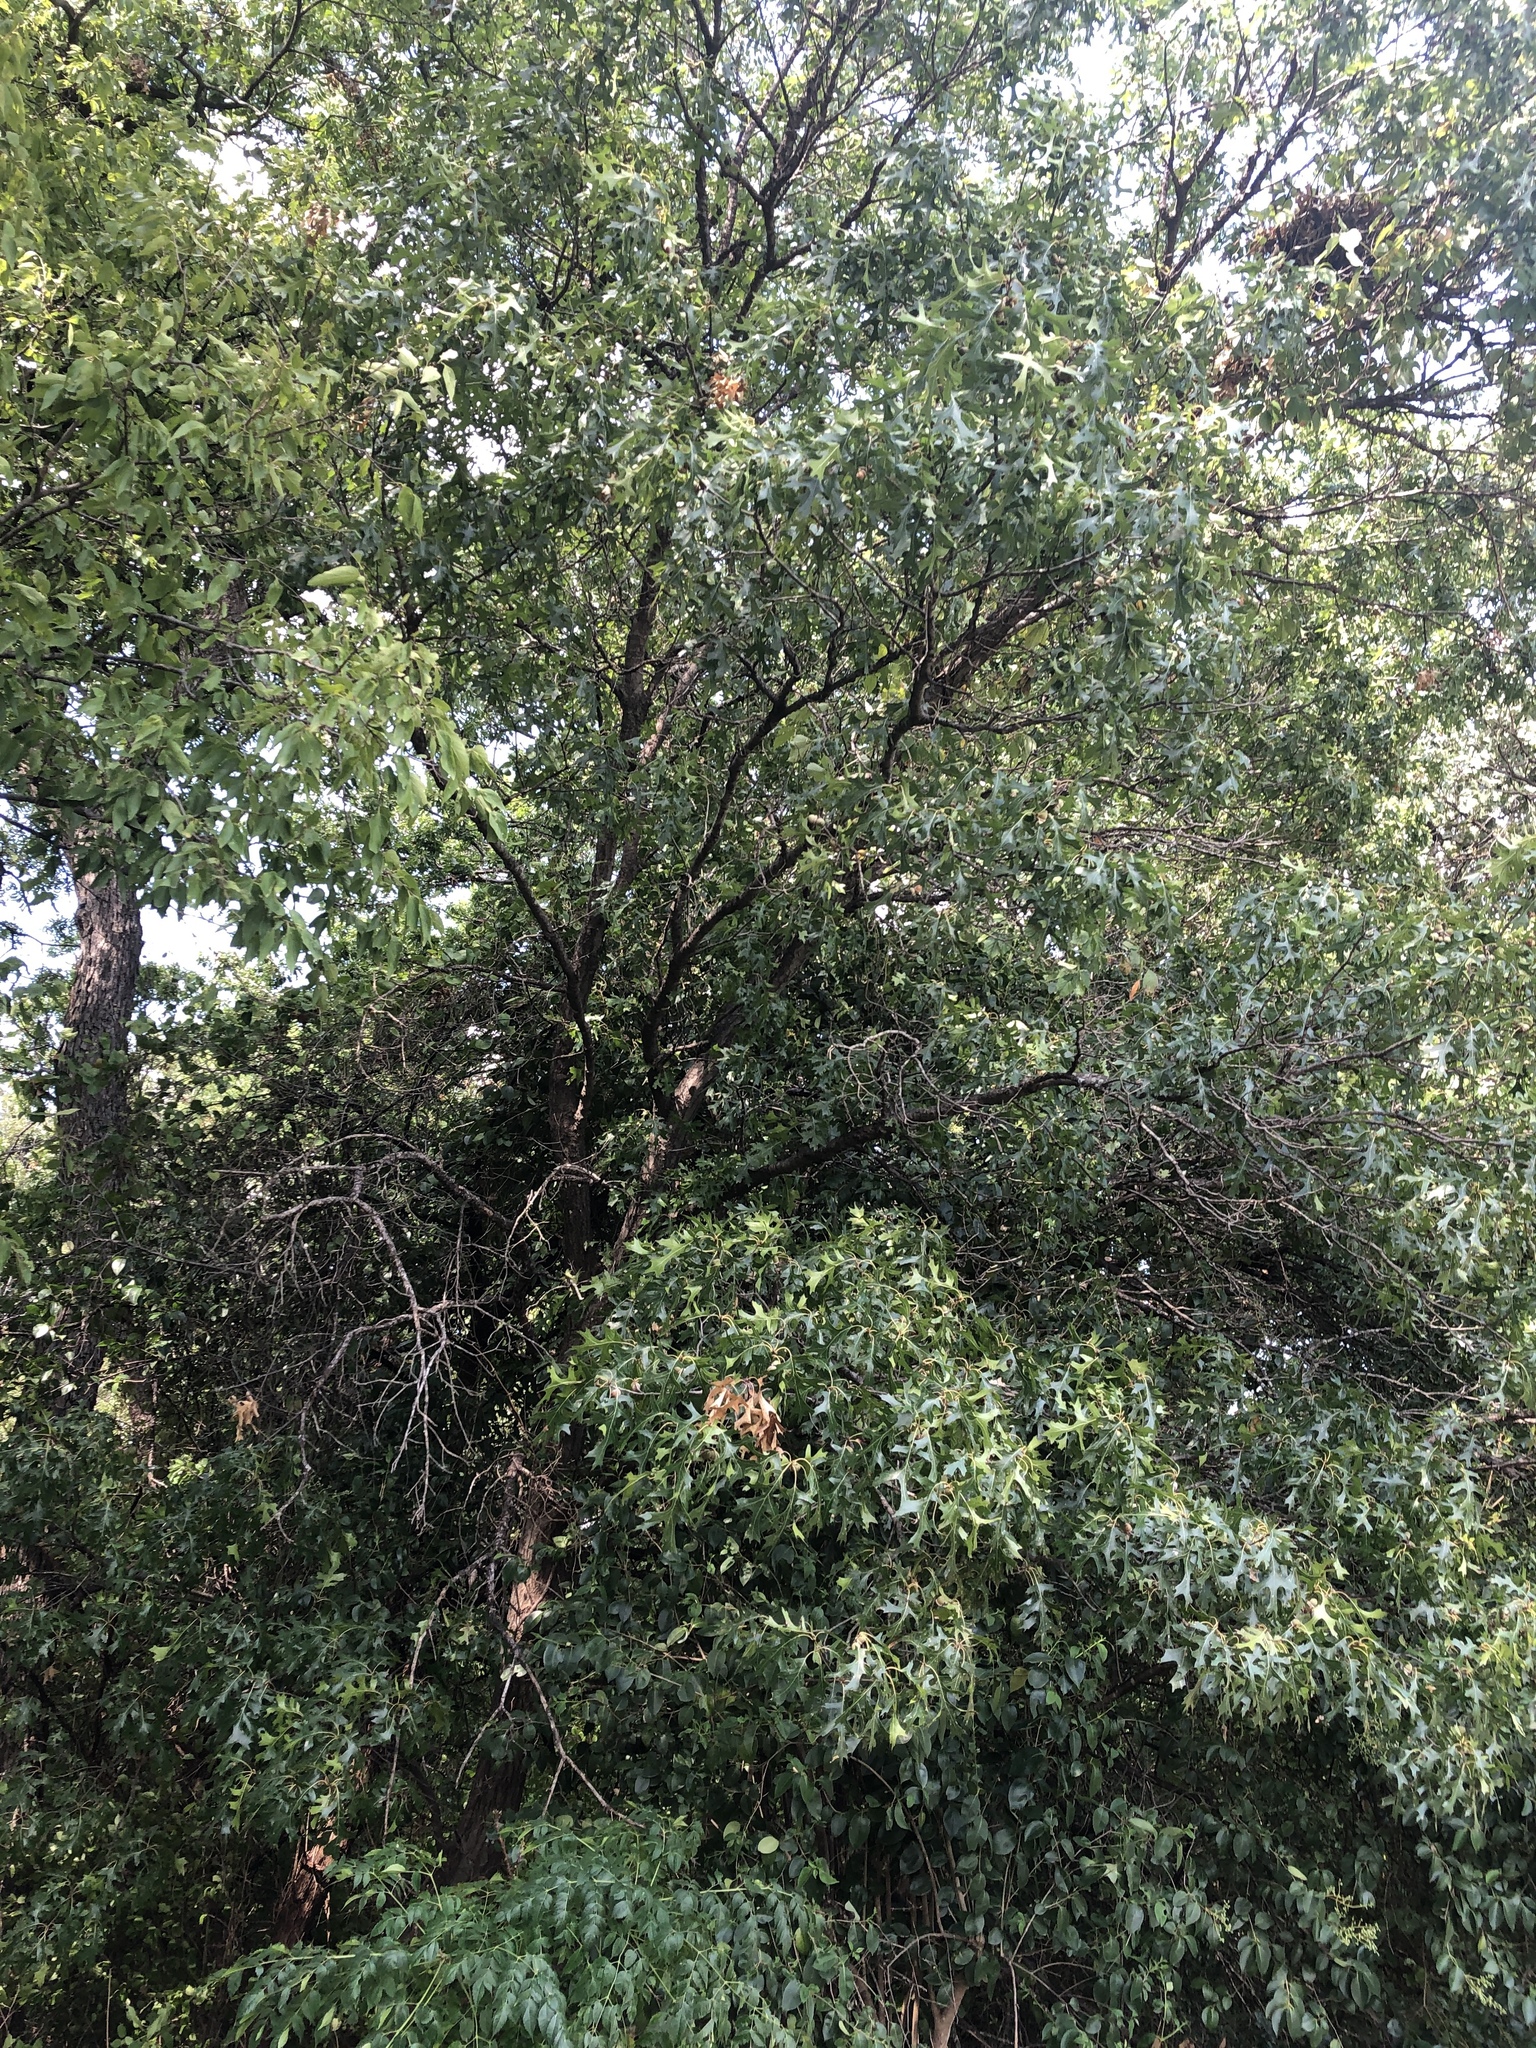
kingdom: Plantae
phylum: Tracheophyta
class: Magnoliopsida
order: Fagales
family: Fagaceae
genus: Quercus
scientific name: Quercus shumardii
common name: Shumard oak
